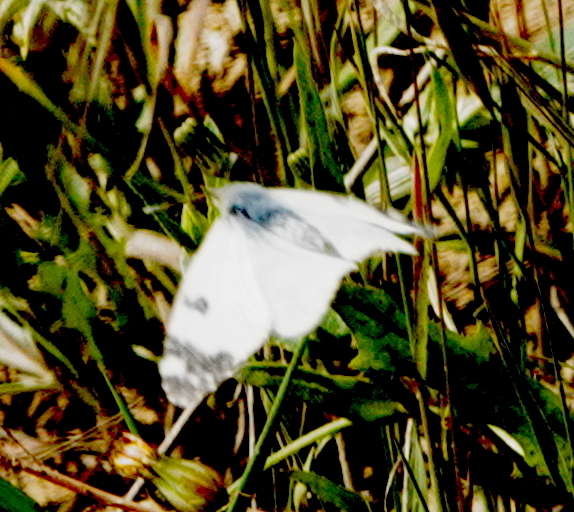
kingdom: Animalia
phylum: Arthropoda
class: Insecta
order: Lepidoptera
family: Pieridae
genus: Euchloe
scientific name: Euchloe crameri
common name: Western dappled white
